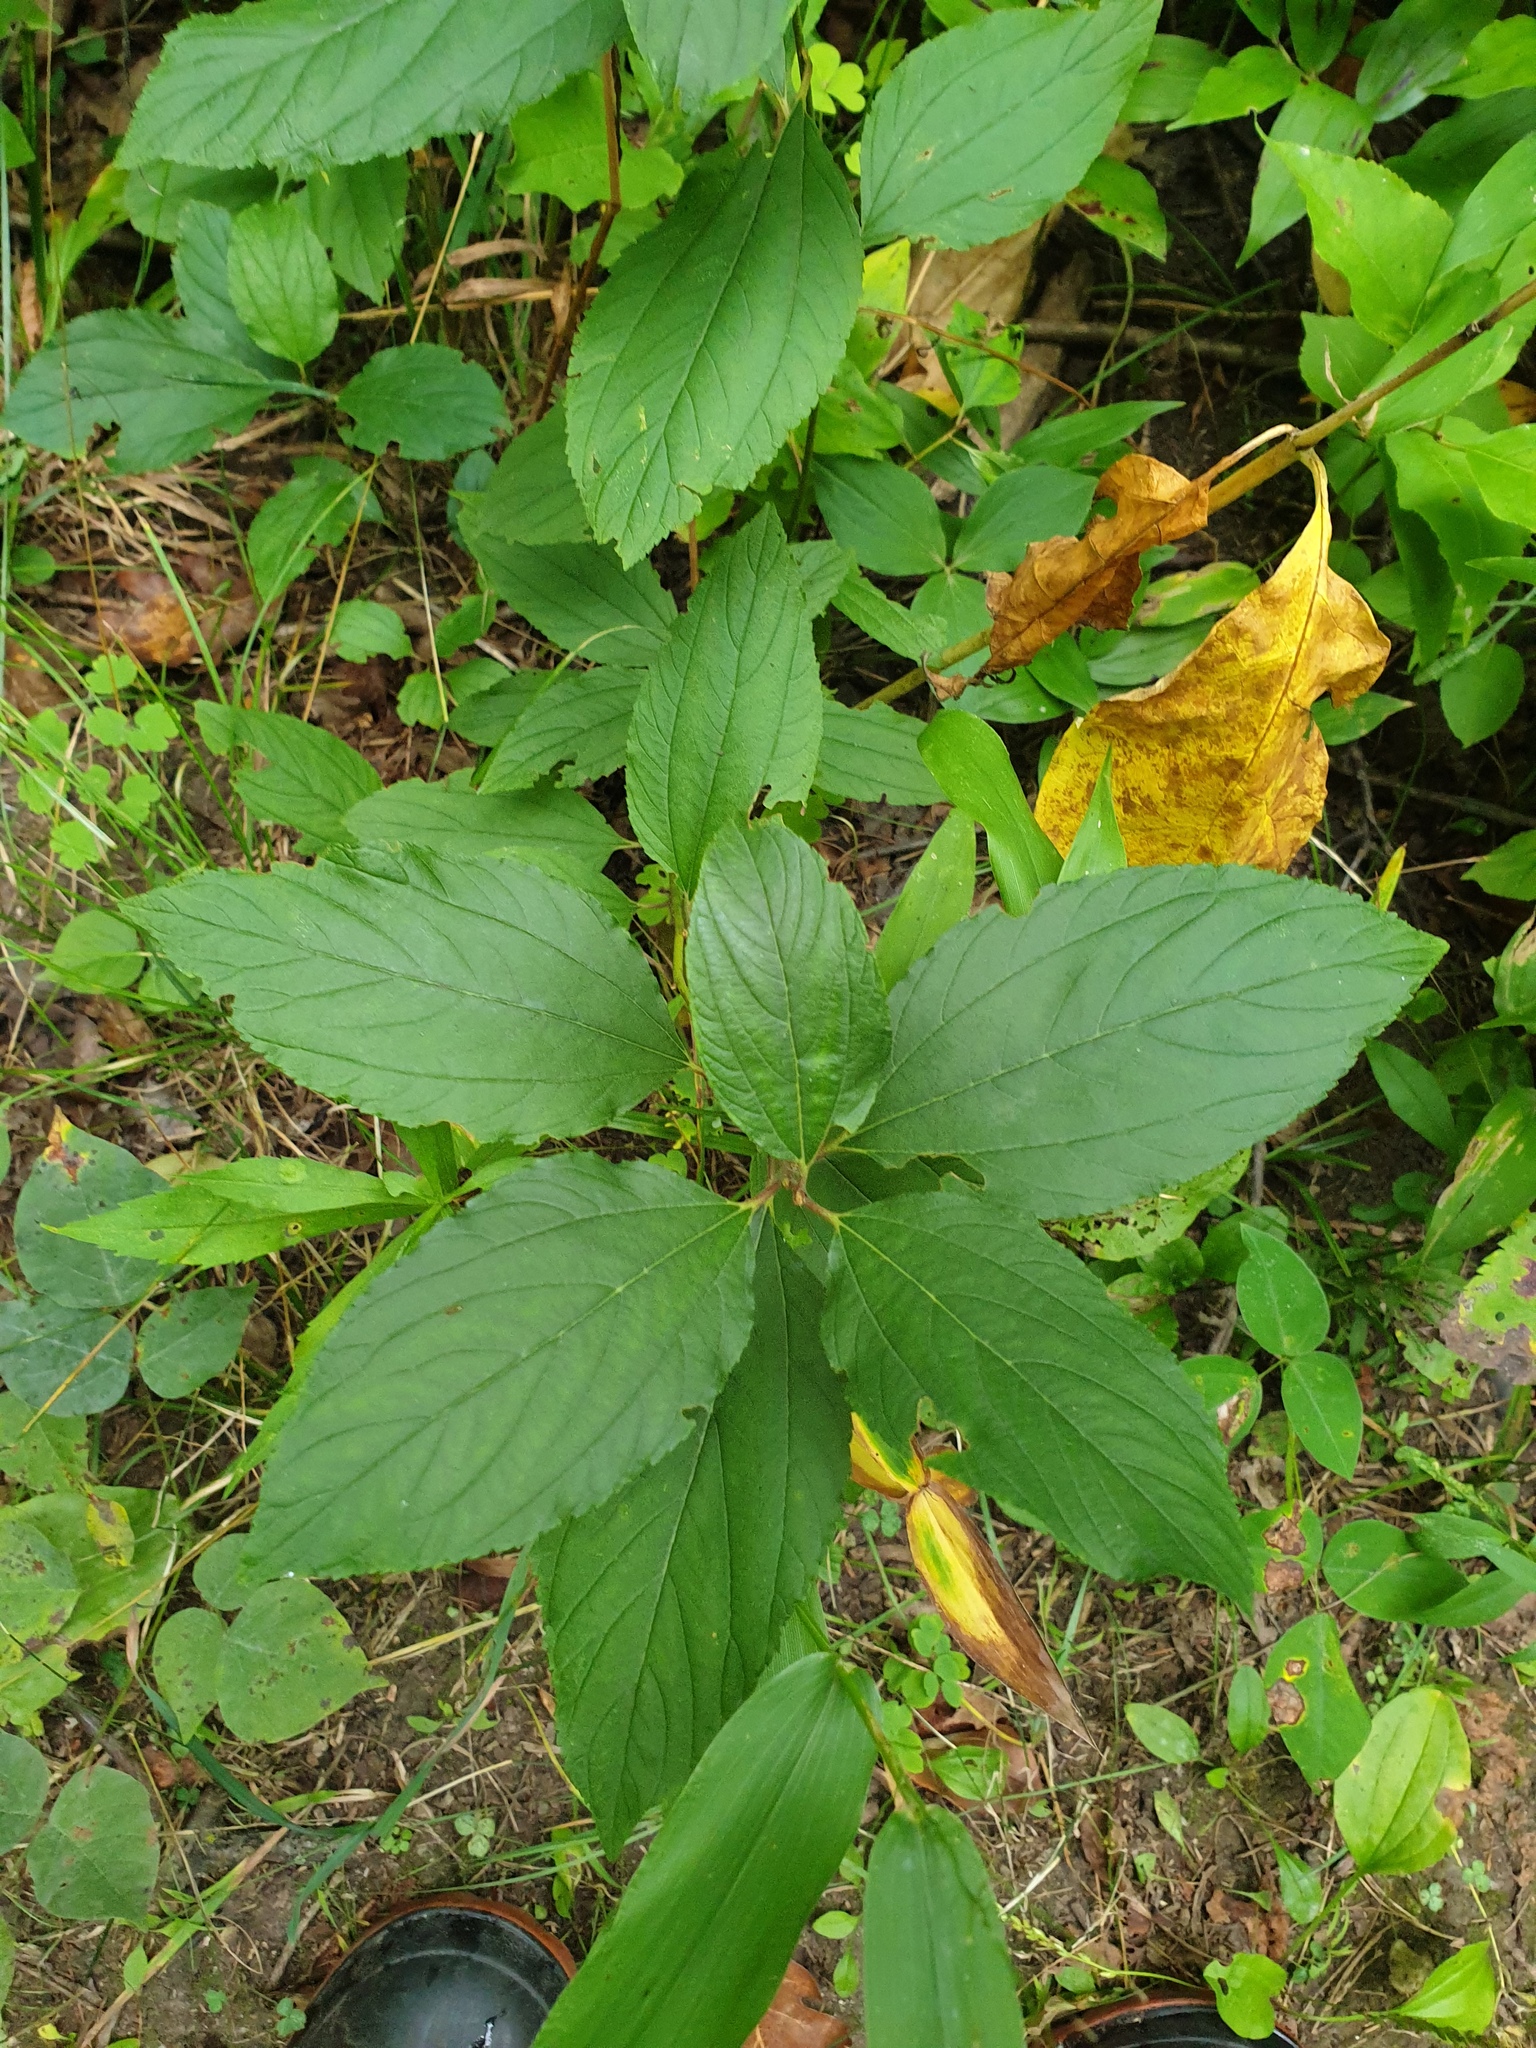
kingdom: Plantae
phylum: Tracheophyta
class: Magnoliopsida
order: Rosales
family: Rhamnaceae
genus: Ceanothus
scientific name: Ceanothus americanus
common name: Redroot
